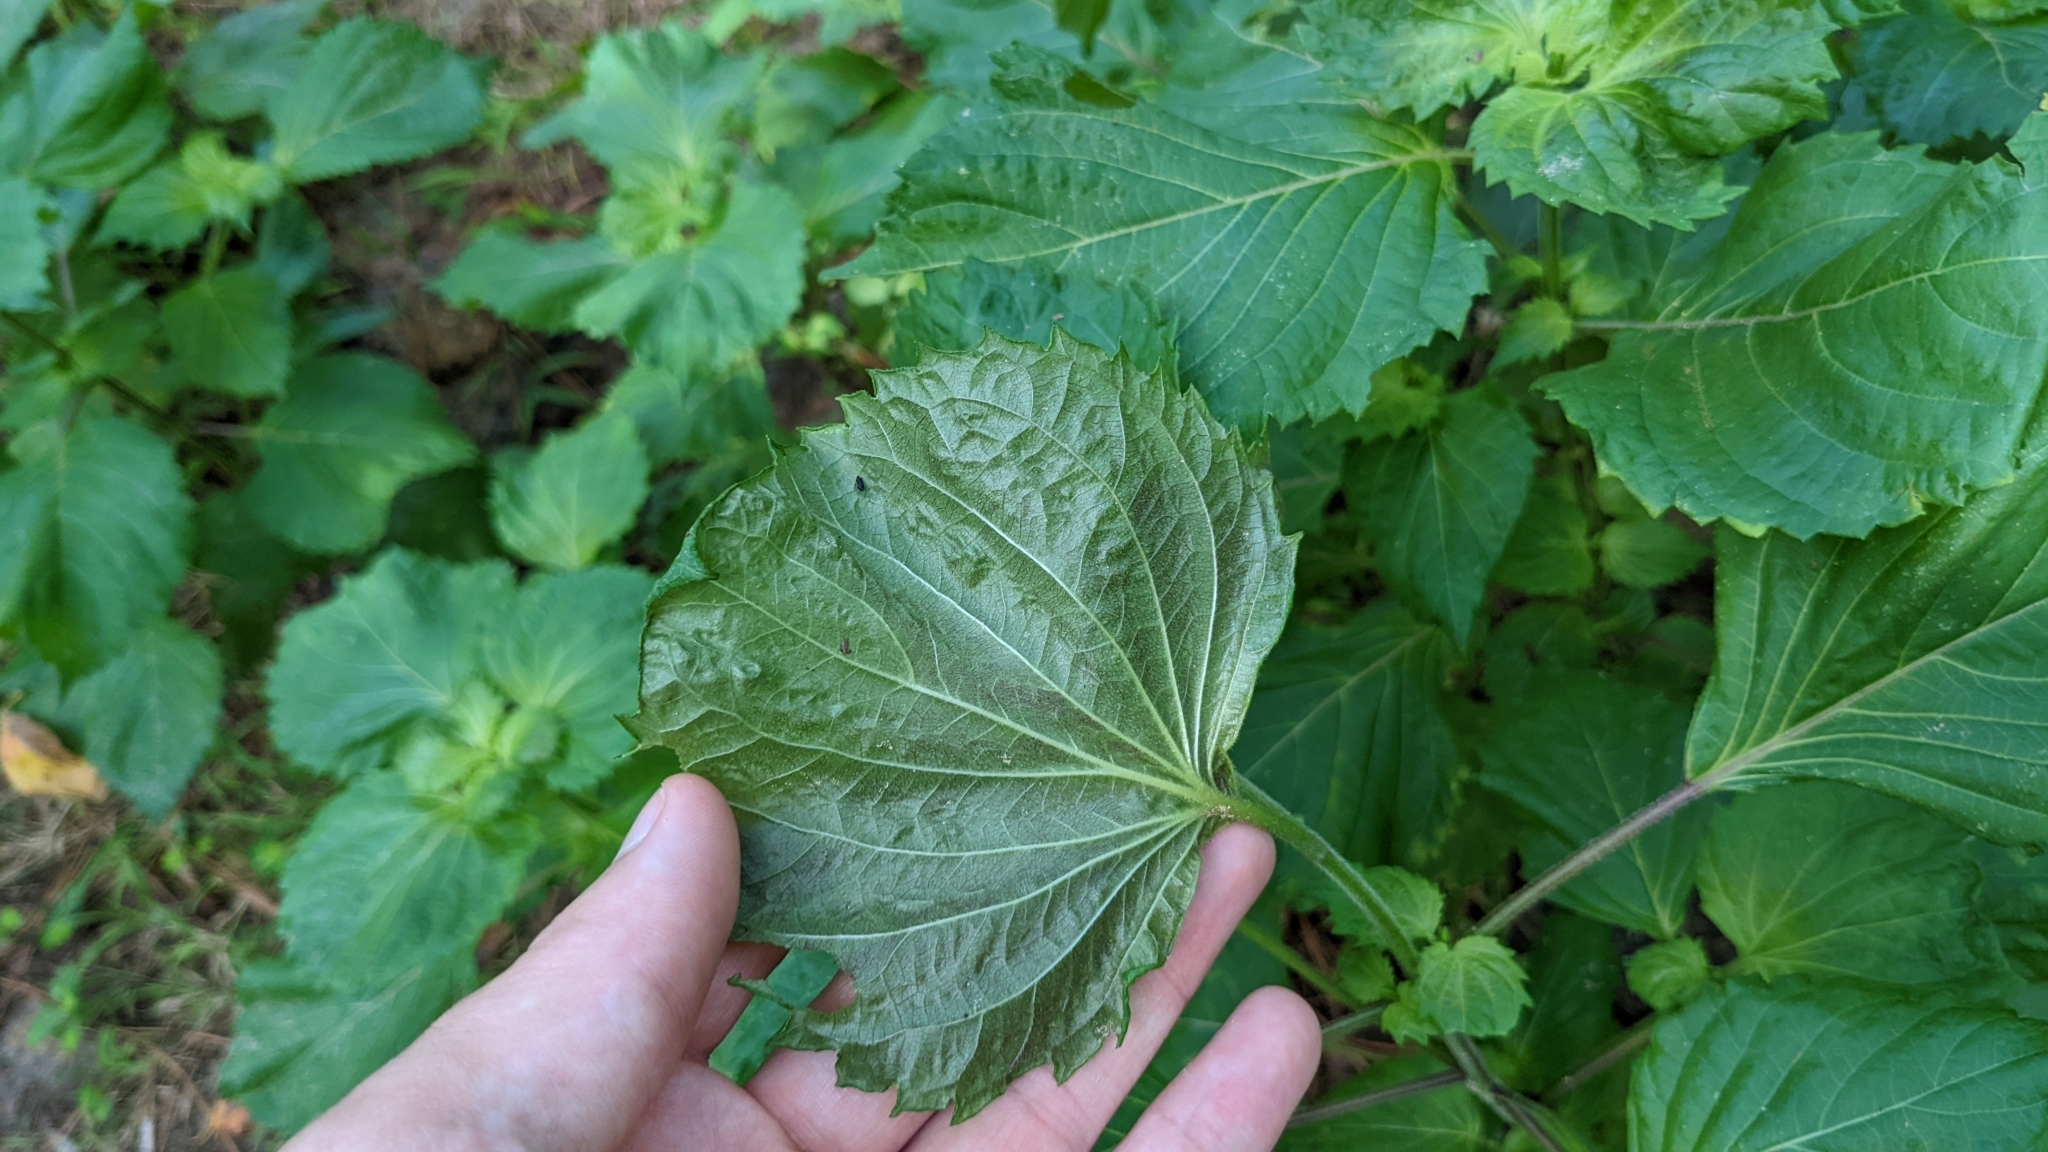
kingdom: Plantae
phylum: Tracheophyta
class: Magnoliopsida
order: Lamiales
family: Lamiaceae
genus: Perilla
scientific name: Perilla frutescens
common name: Perilla
